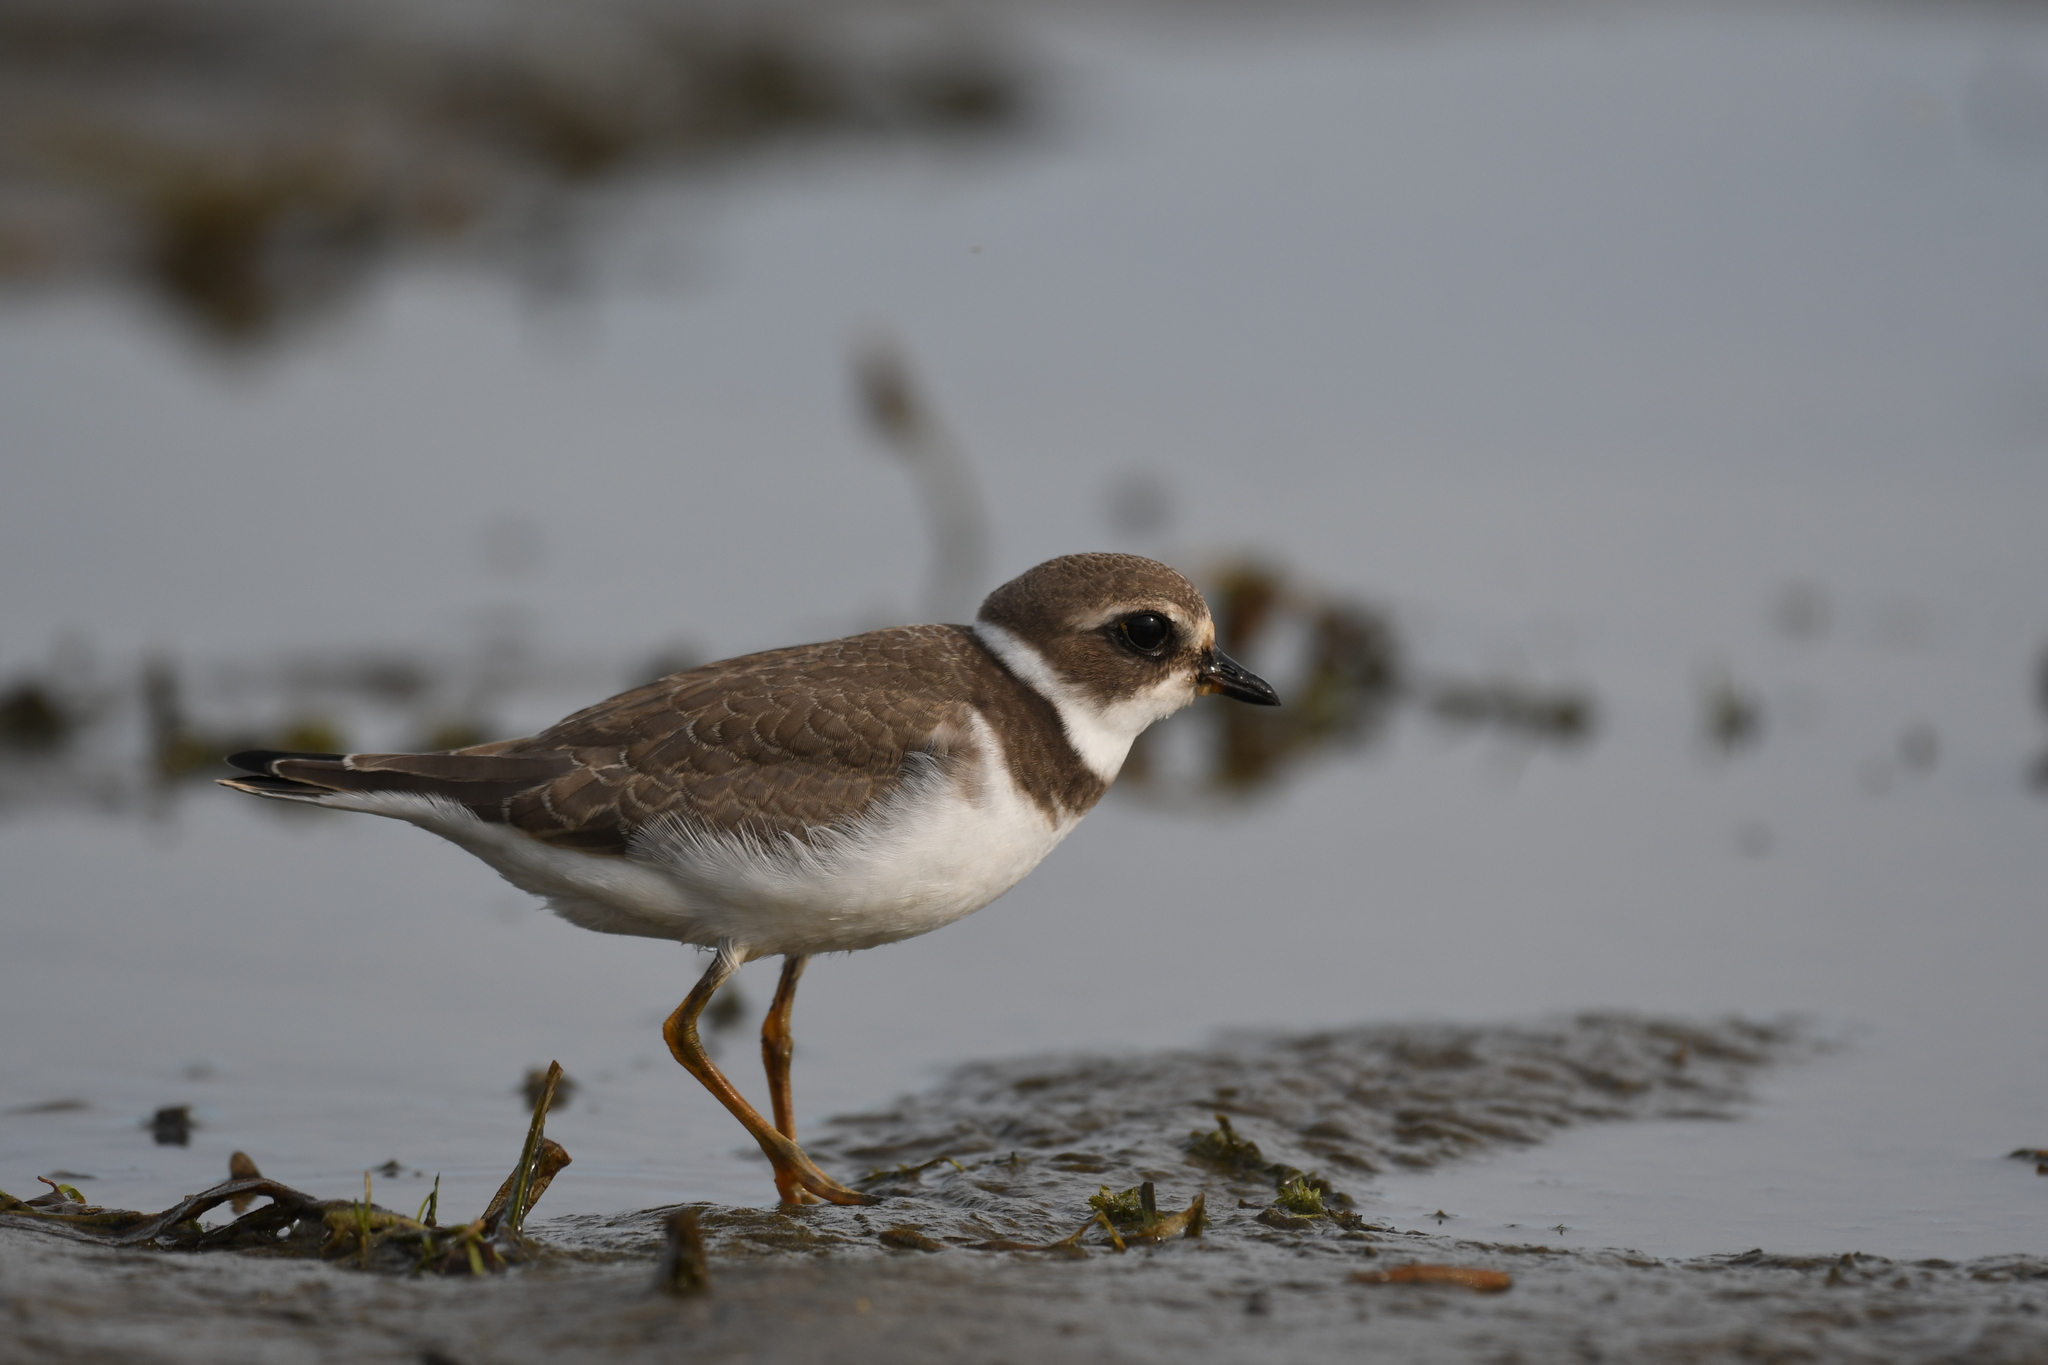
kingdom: Animalia
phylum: Chordata
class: Aves
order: Charadriiformes
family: Charadriidae
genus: Charadrius
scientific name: Charadrius semipalmatus
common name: Semipalmated plover
